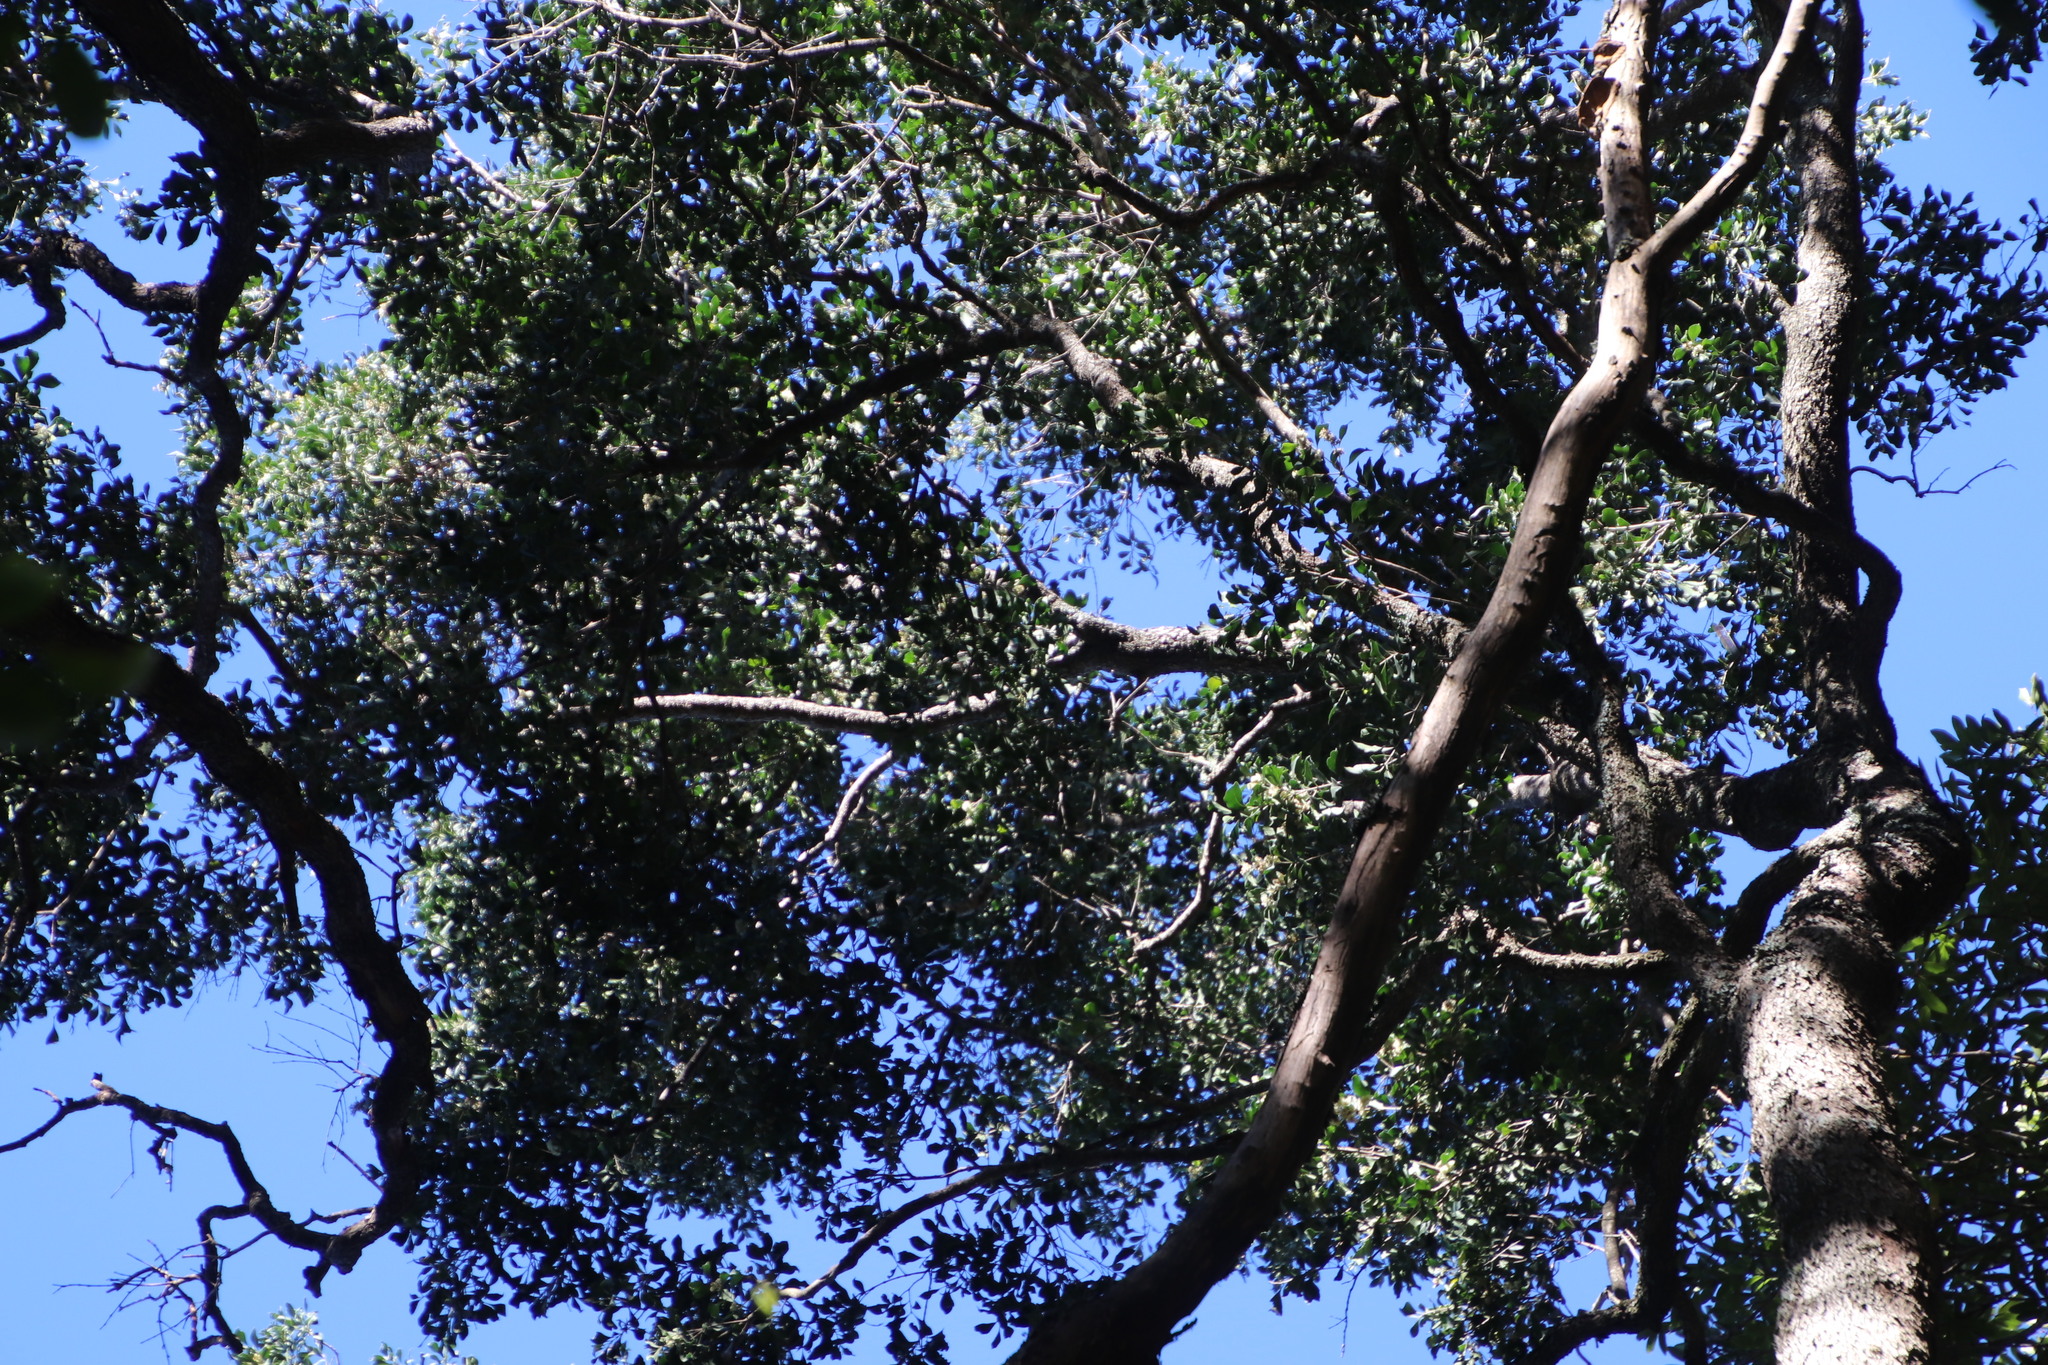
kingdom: Plantae
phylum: Tracheophyta
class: Magnoliopsida
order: Myrtales
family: Penaeaceae
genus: Olinia
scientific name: Olinia ventosa
